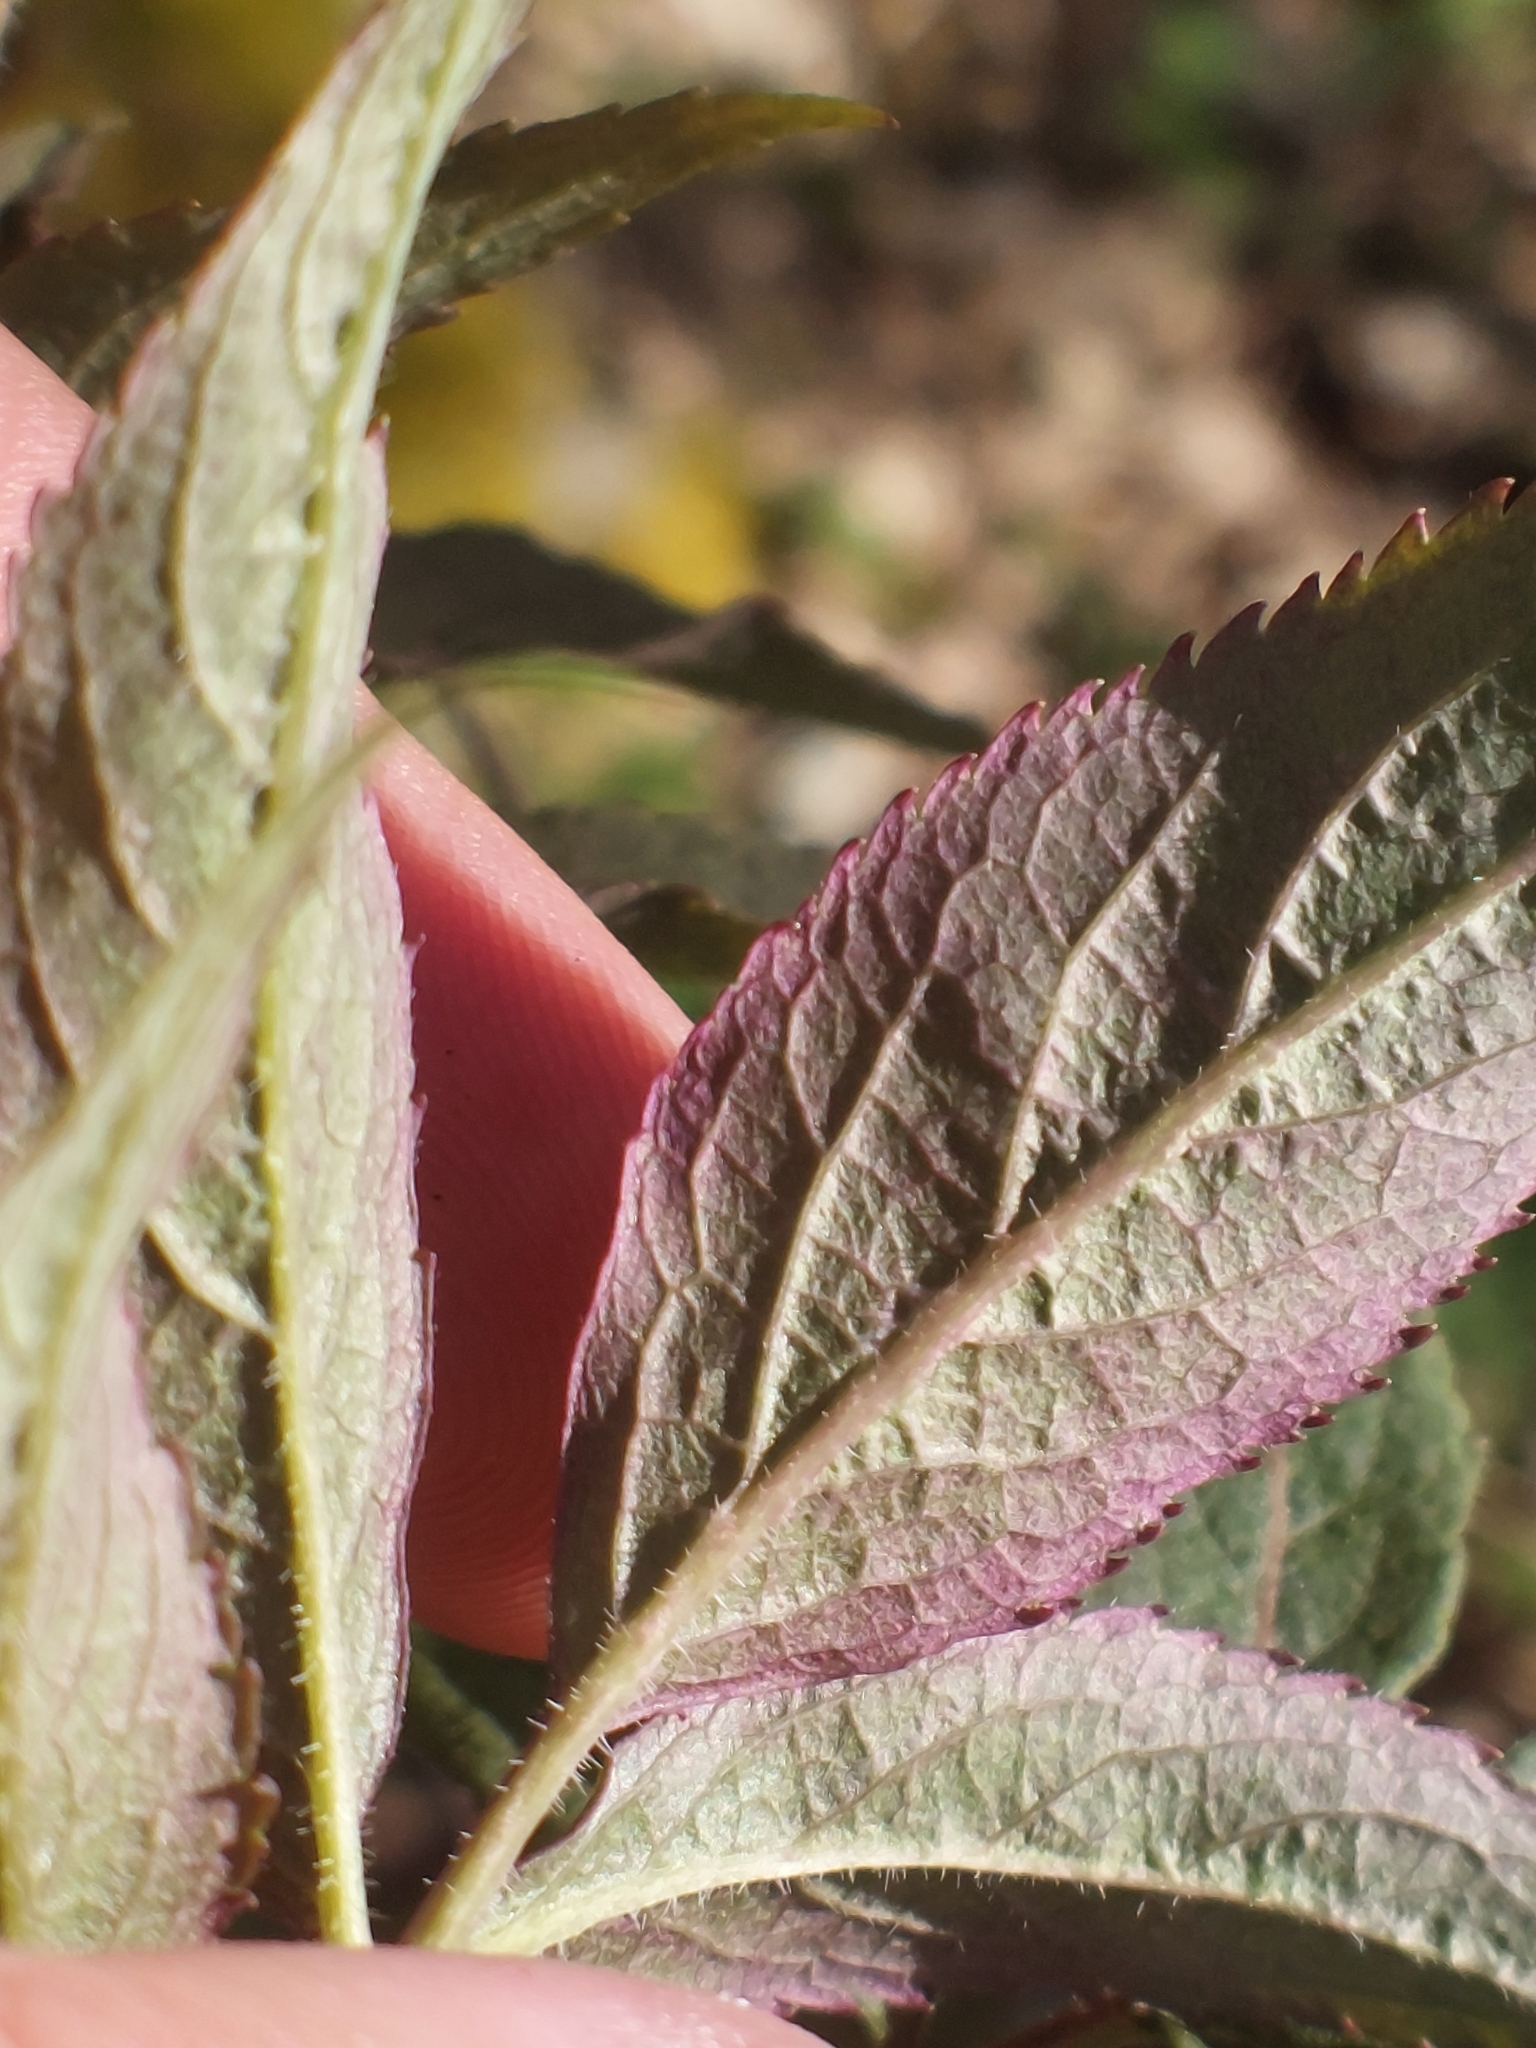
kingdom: Plantae
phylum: Tracheophyta
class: Magnoliopsida
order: Dipsacales
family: Viburnaceae
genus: Sambucus
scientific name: Sambucus racemosa
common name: Red-berried elder
